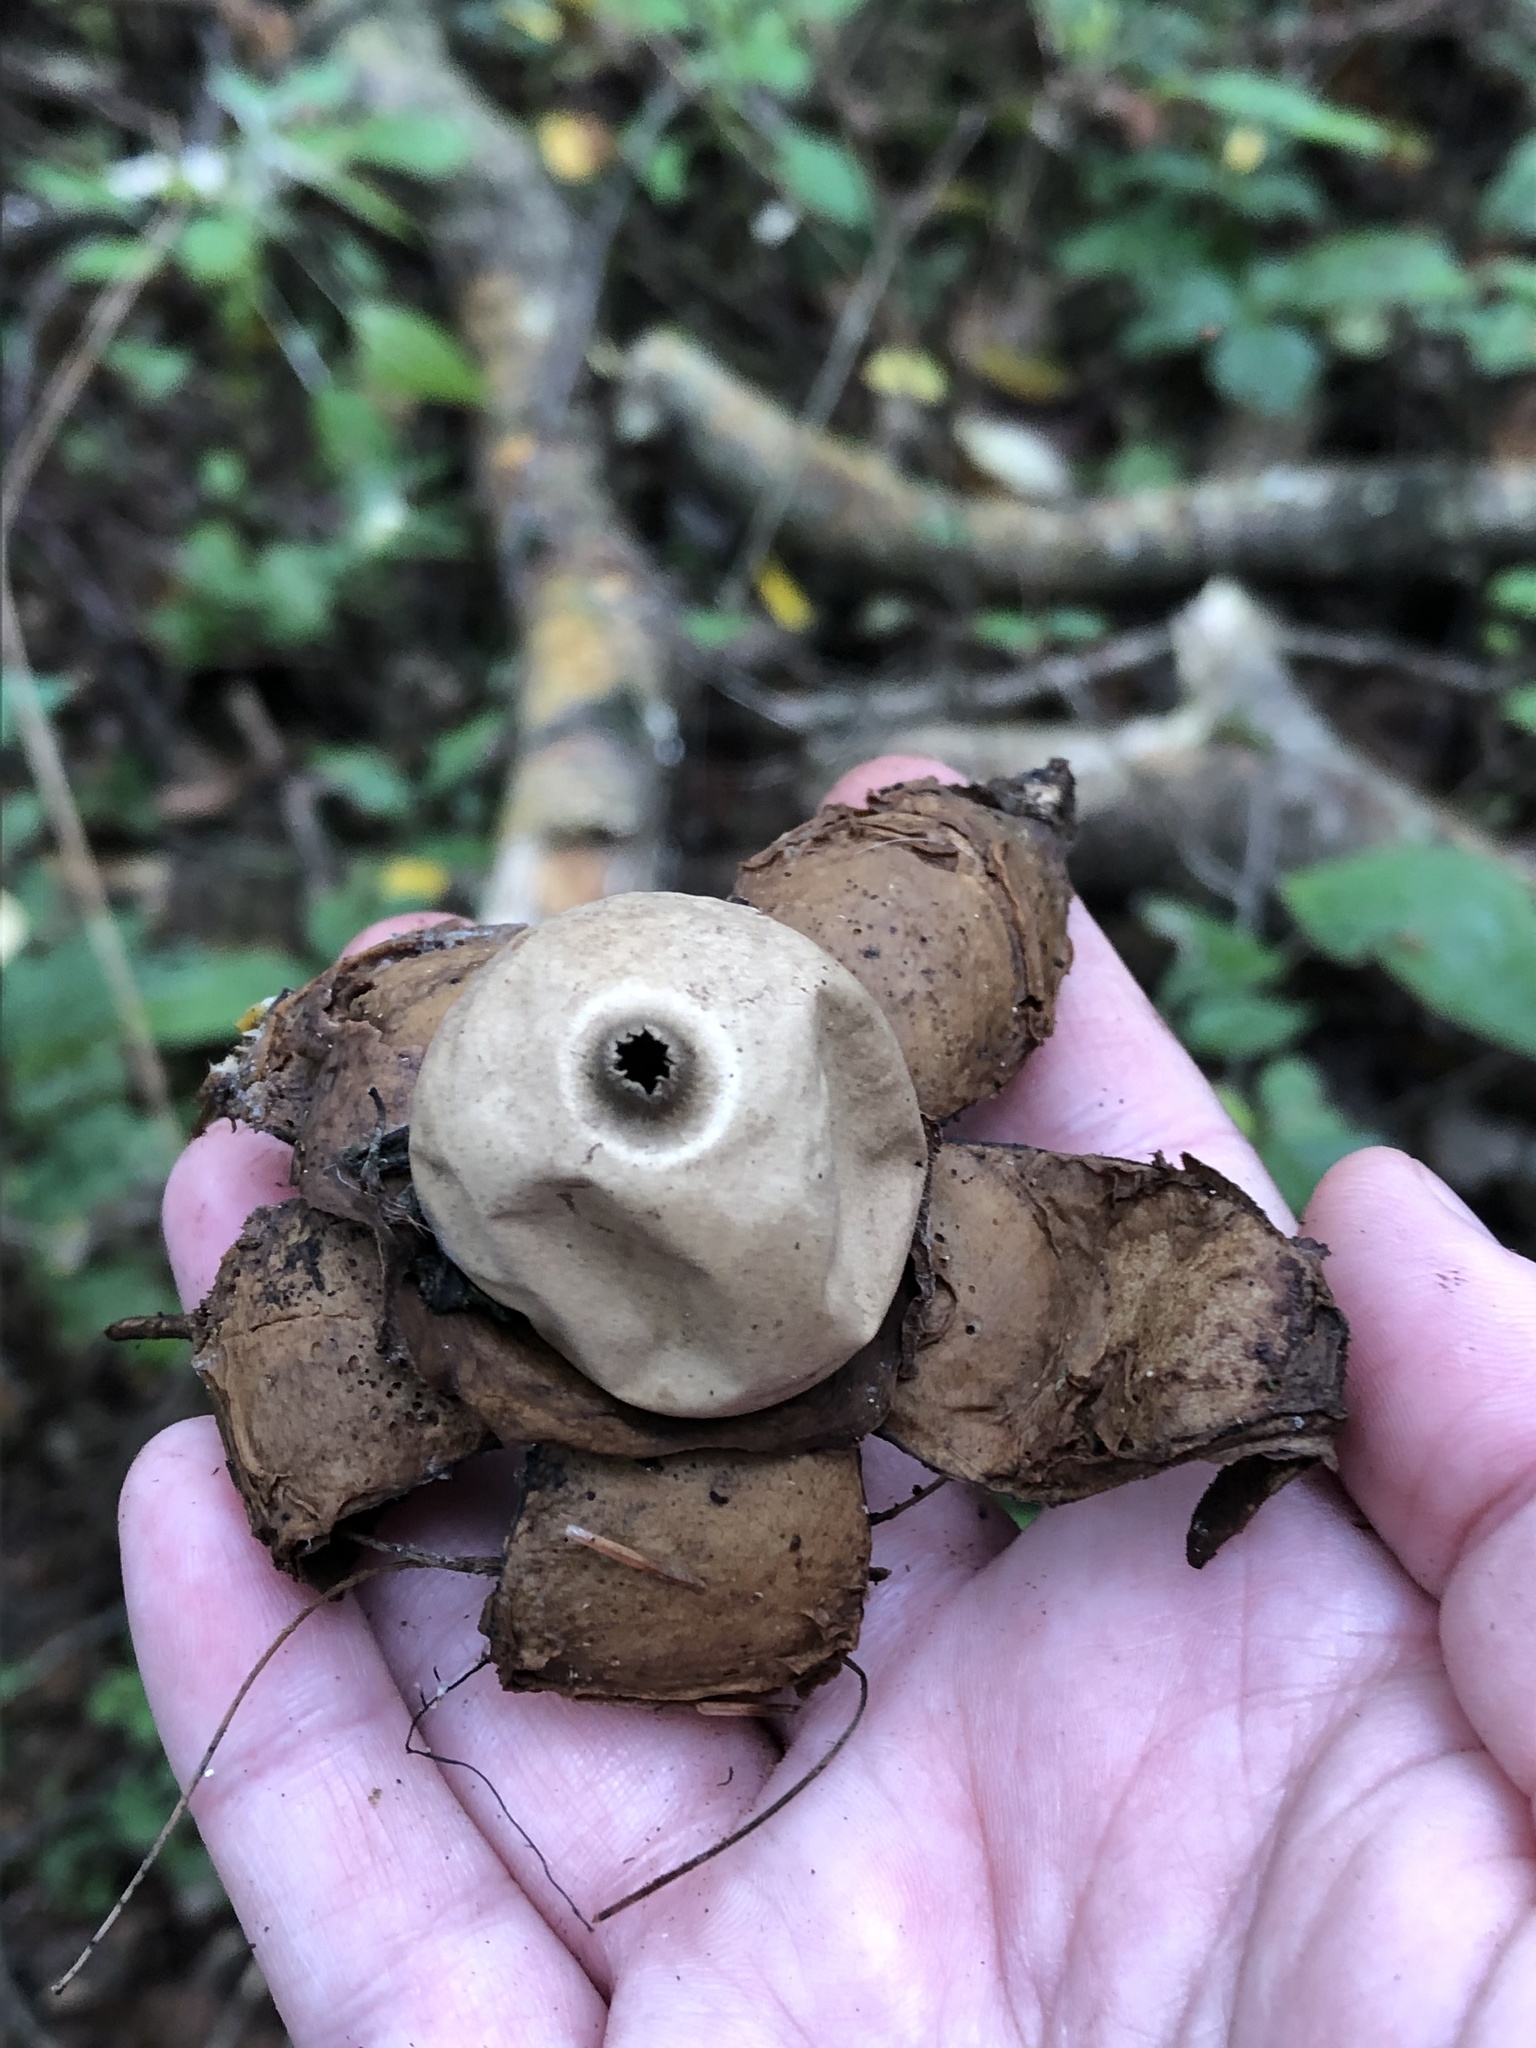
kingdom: Fungi
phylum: Basidiomycota
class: Agaricomycetes
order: Geastrales
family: Geastraceae
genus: Geastrum
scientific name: Geastrum triplex
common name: Collared earthstar
